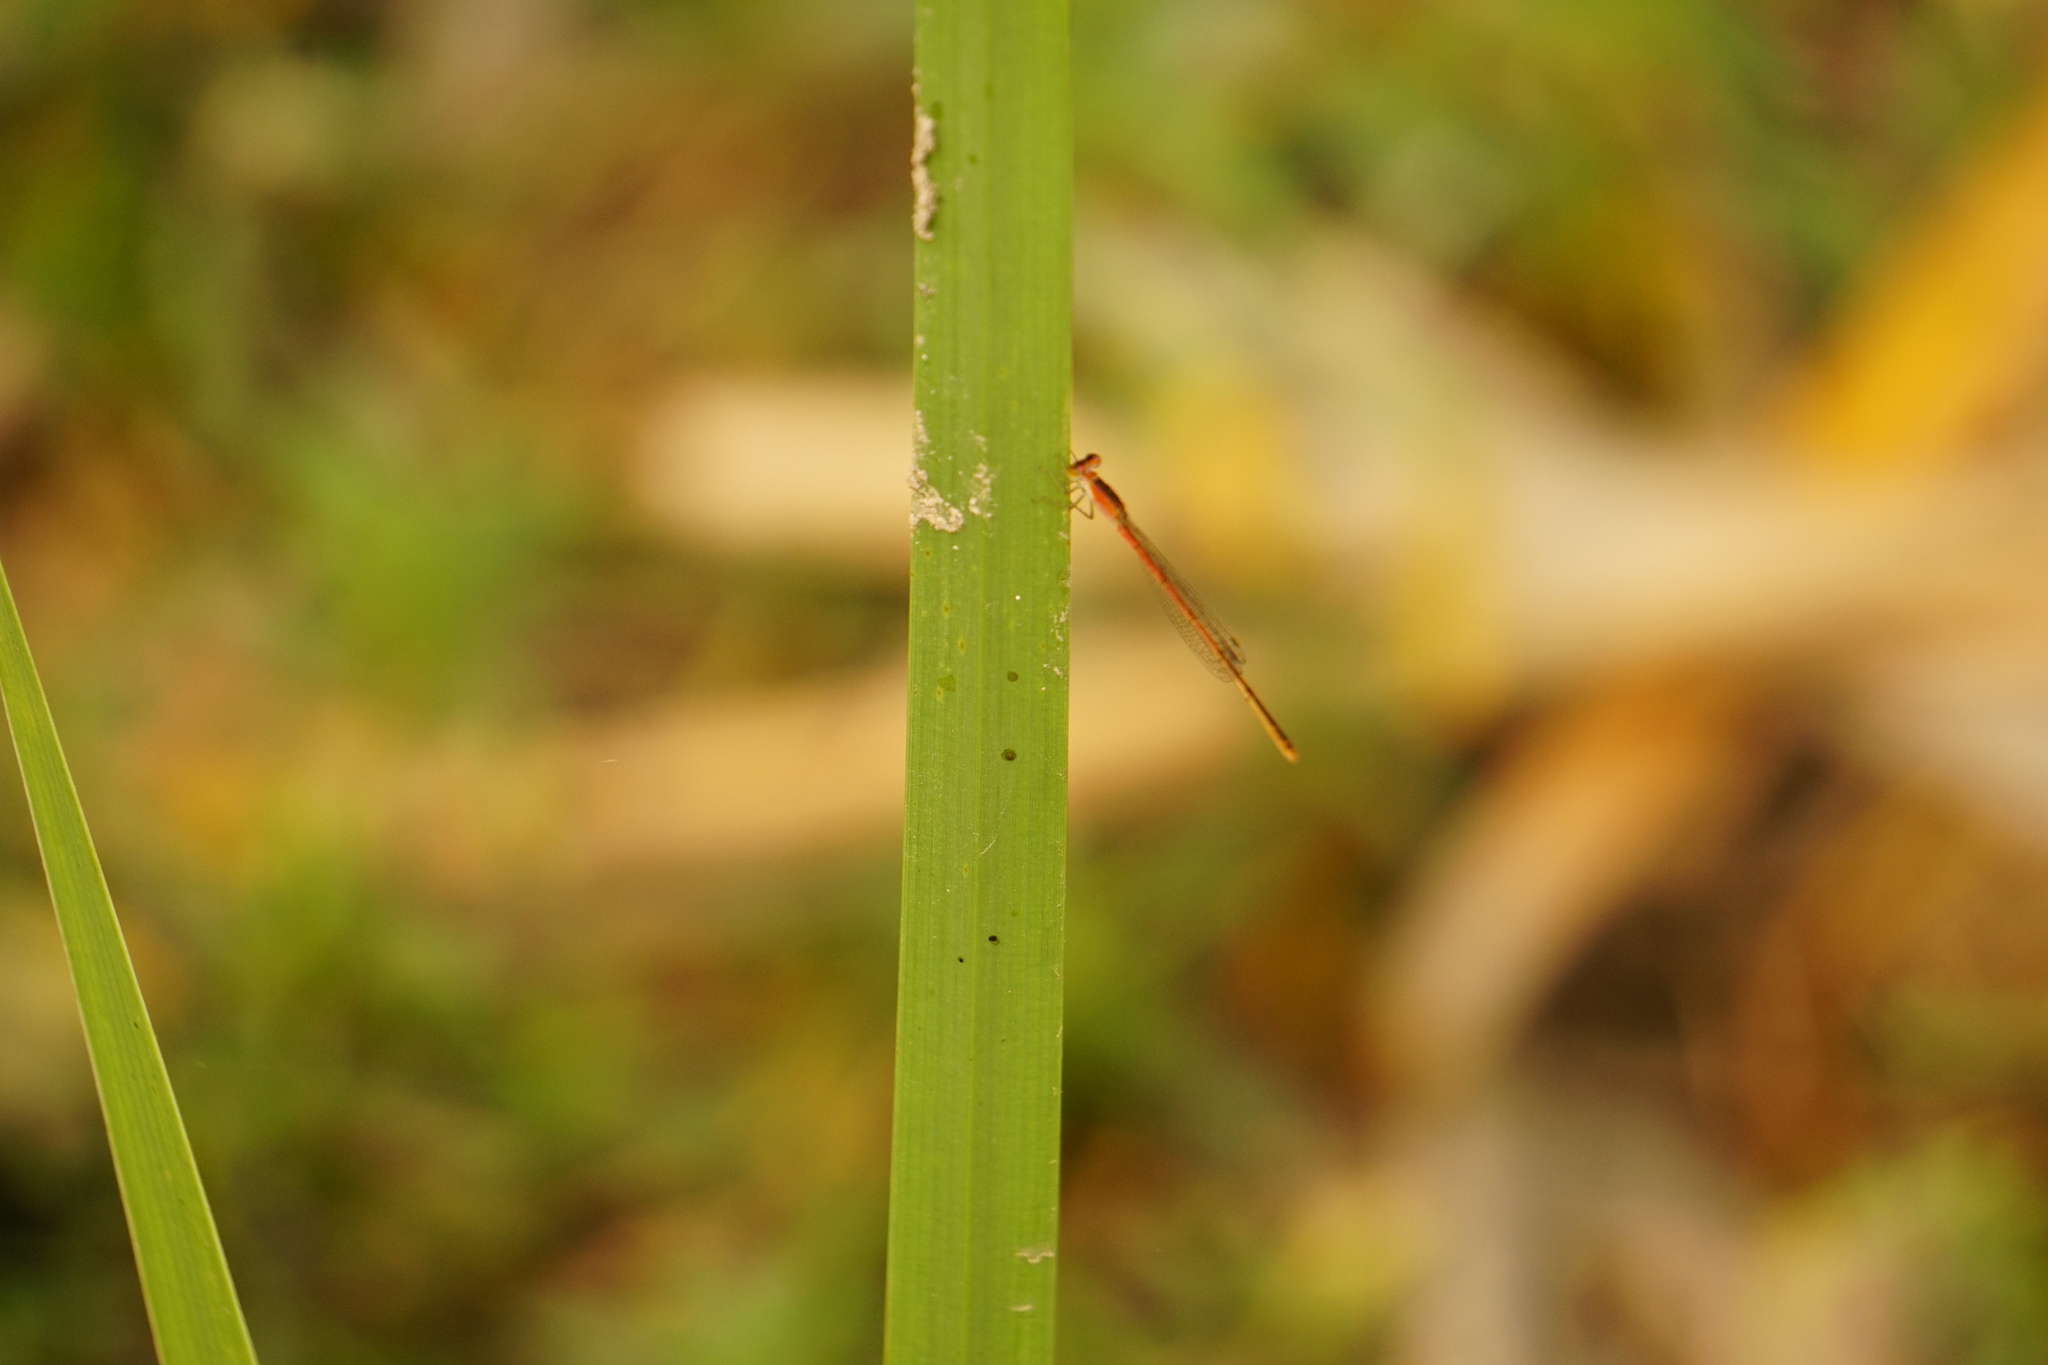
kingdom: Animalia
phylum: Arthropoda
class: Insecta
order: Odonata
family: Coenagrionidae
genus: Agriocnemis
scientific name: Agriocnemis pygmaea
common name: Pygmy wisp
